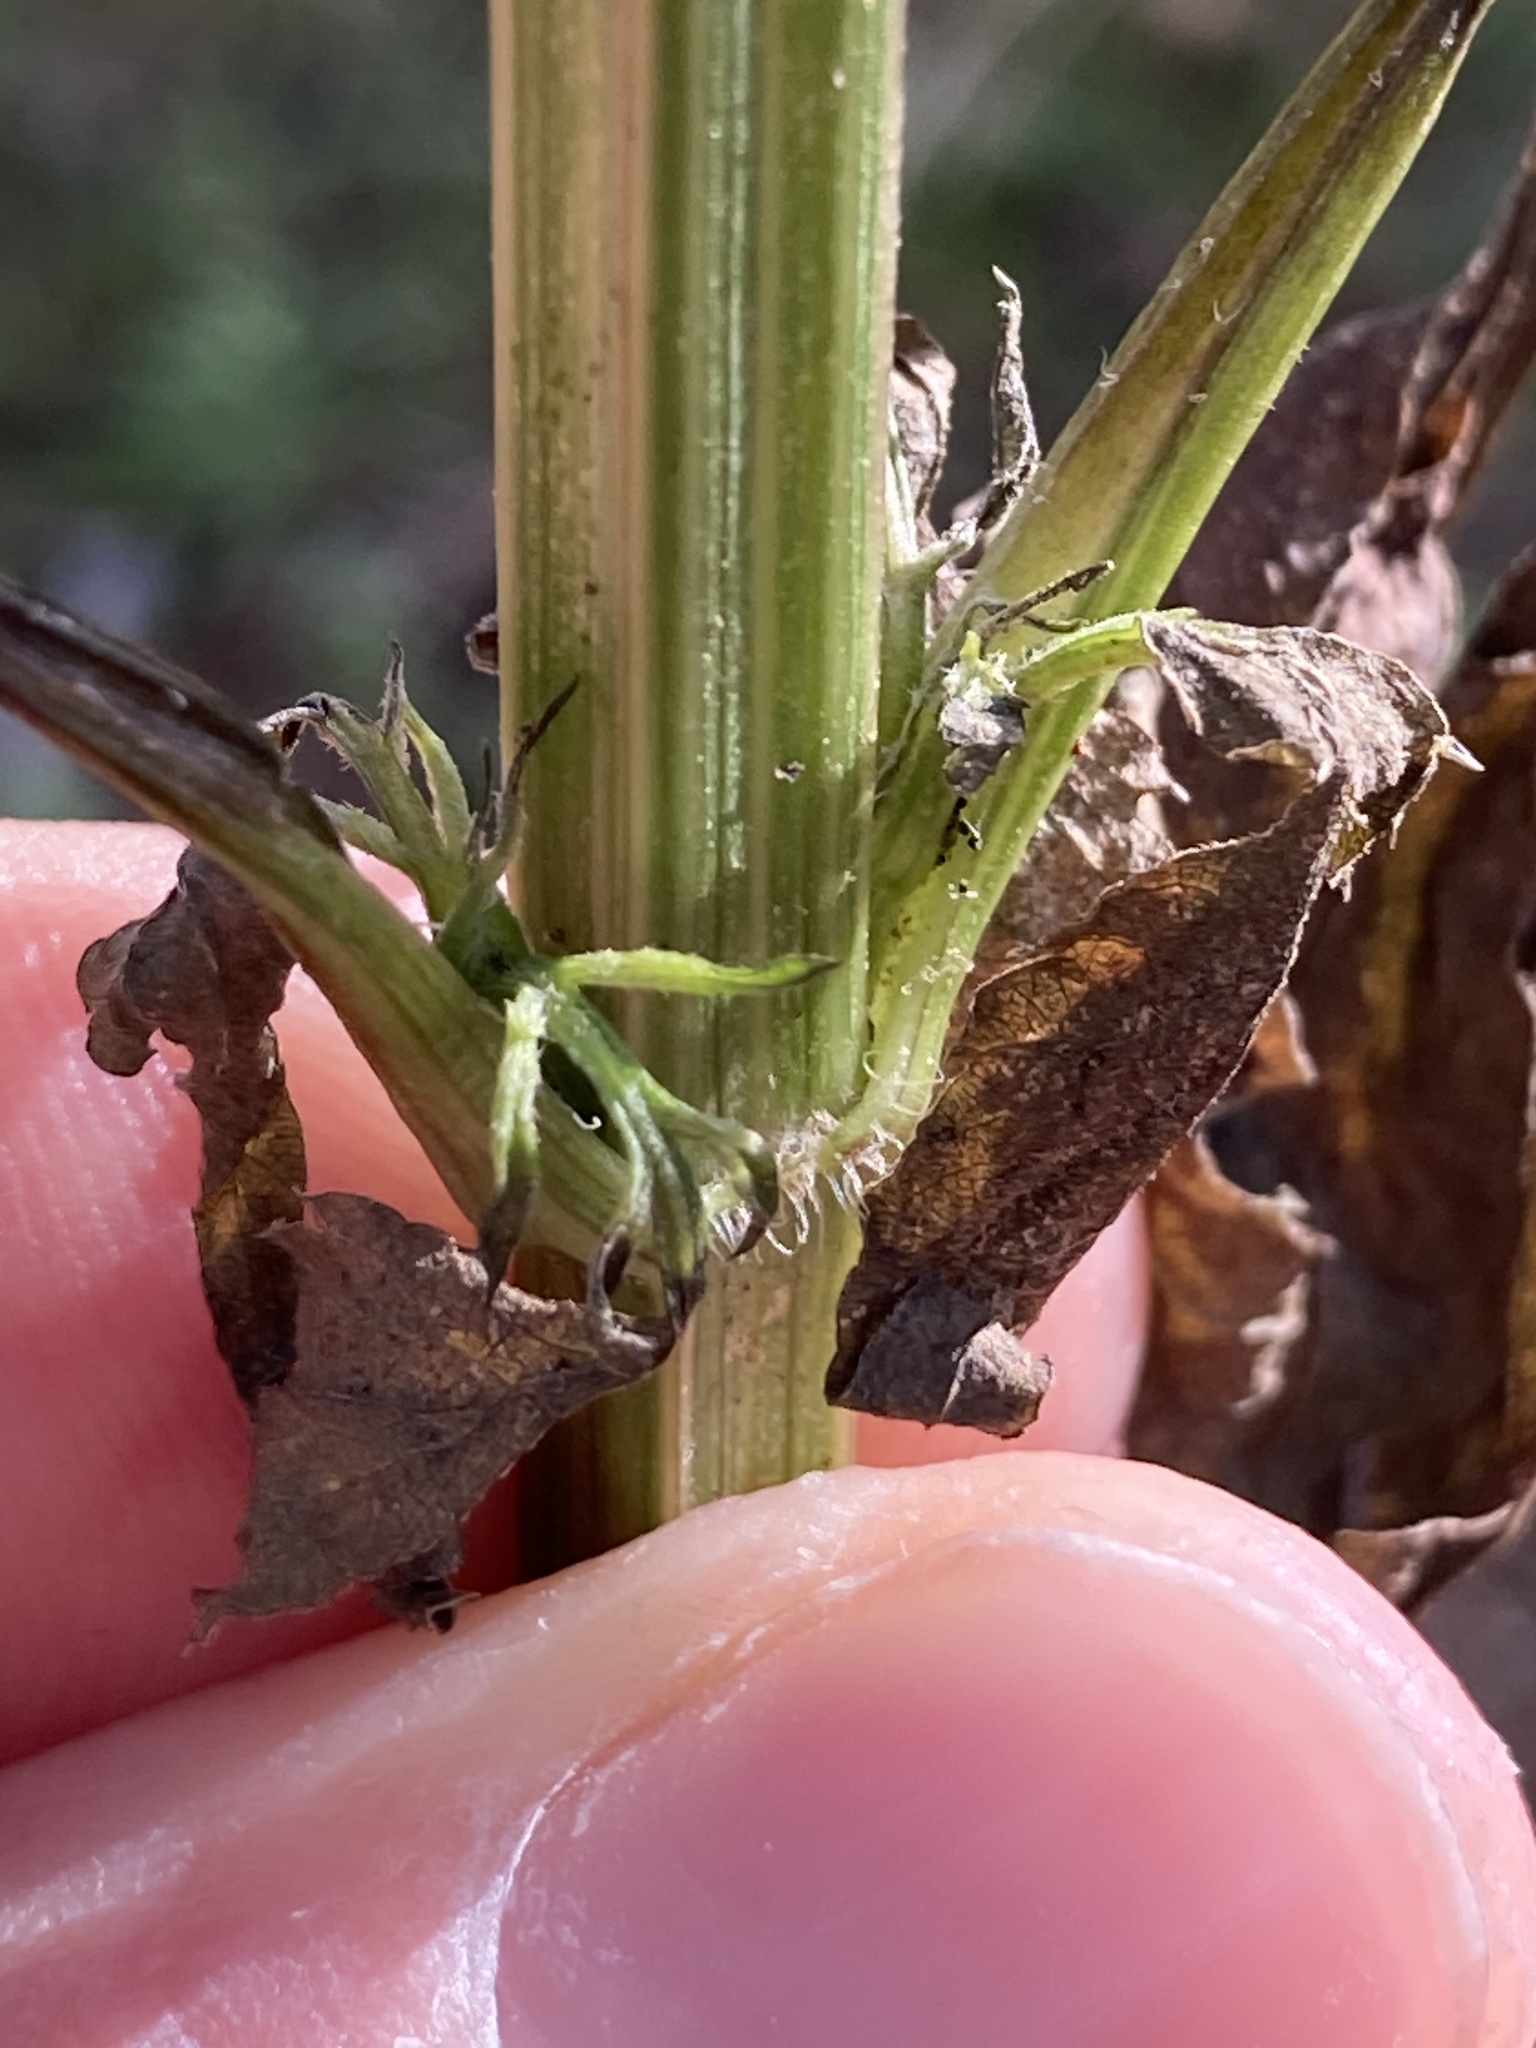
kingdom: Plantae
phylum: Tracheophyta
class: Magnoliopsida
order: Asterales
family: Asteraceae
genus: Bidens
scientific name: Bidens subalternans
